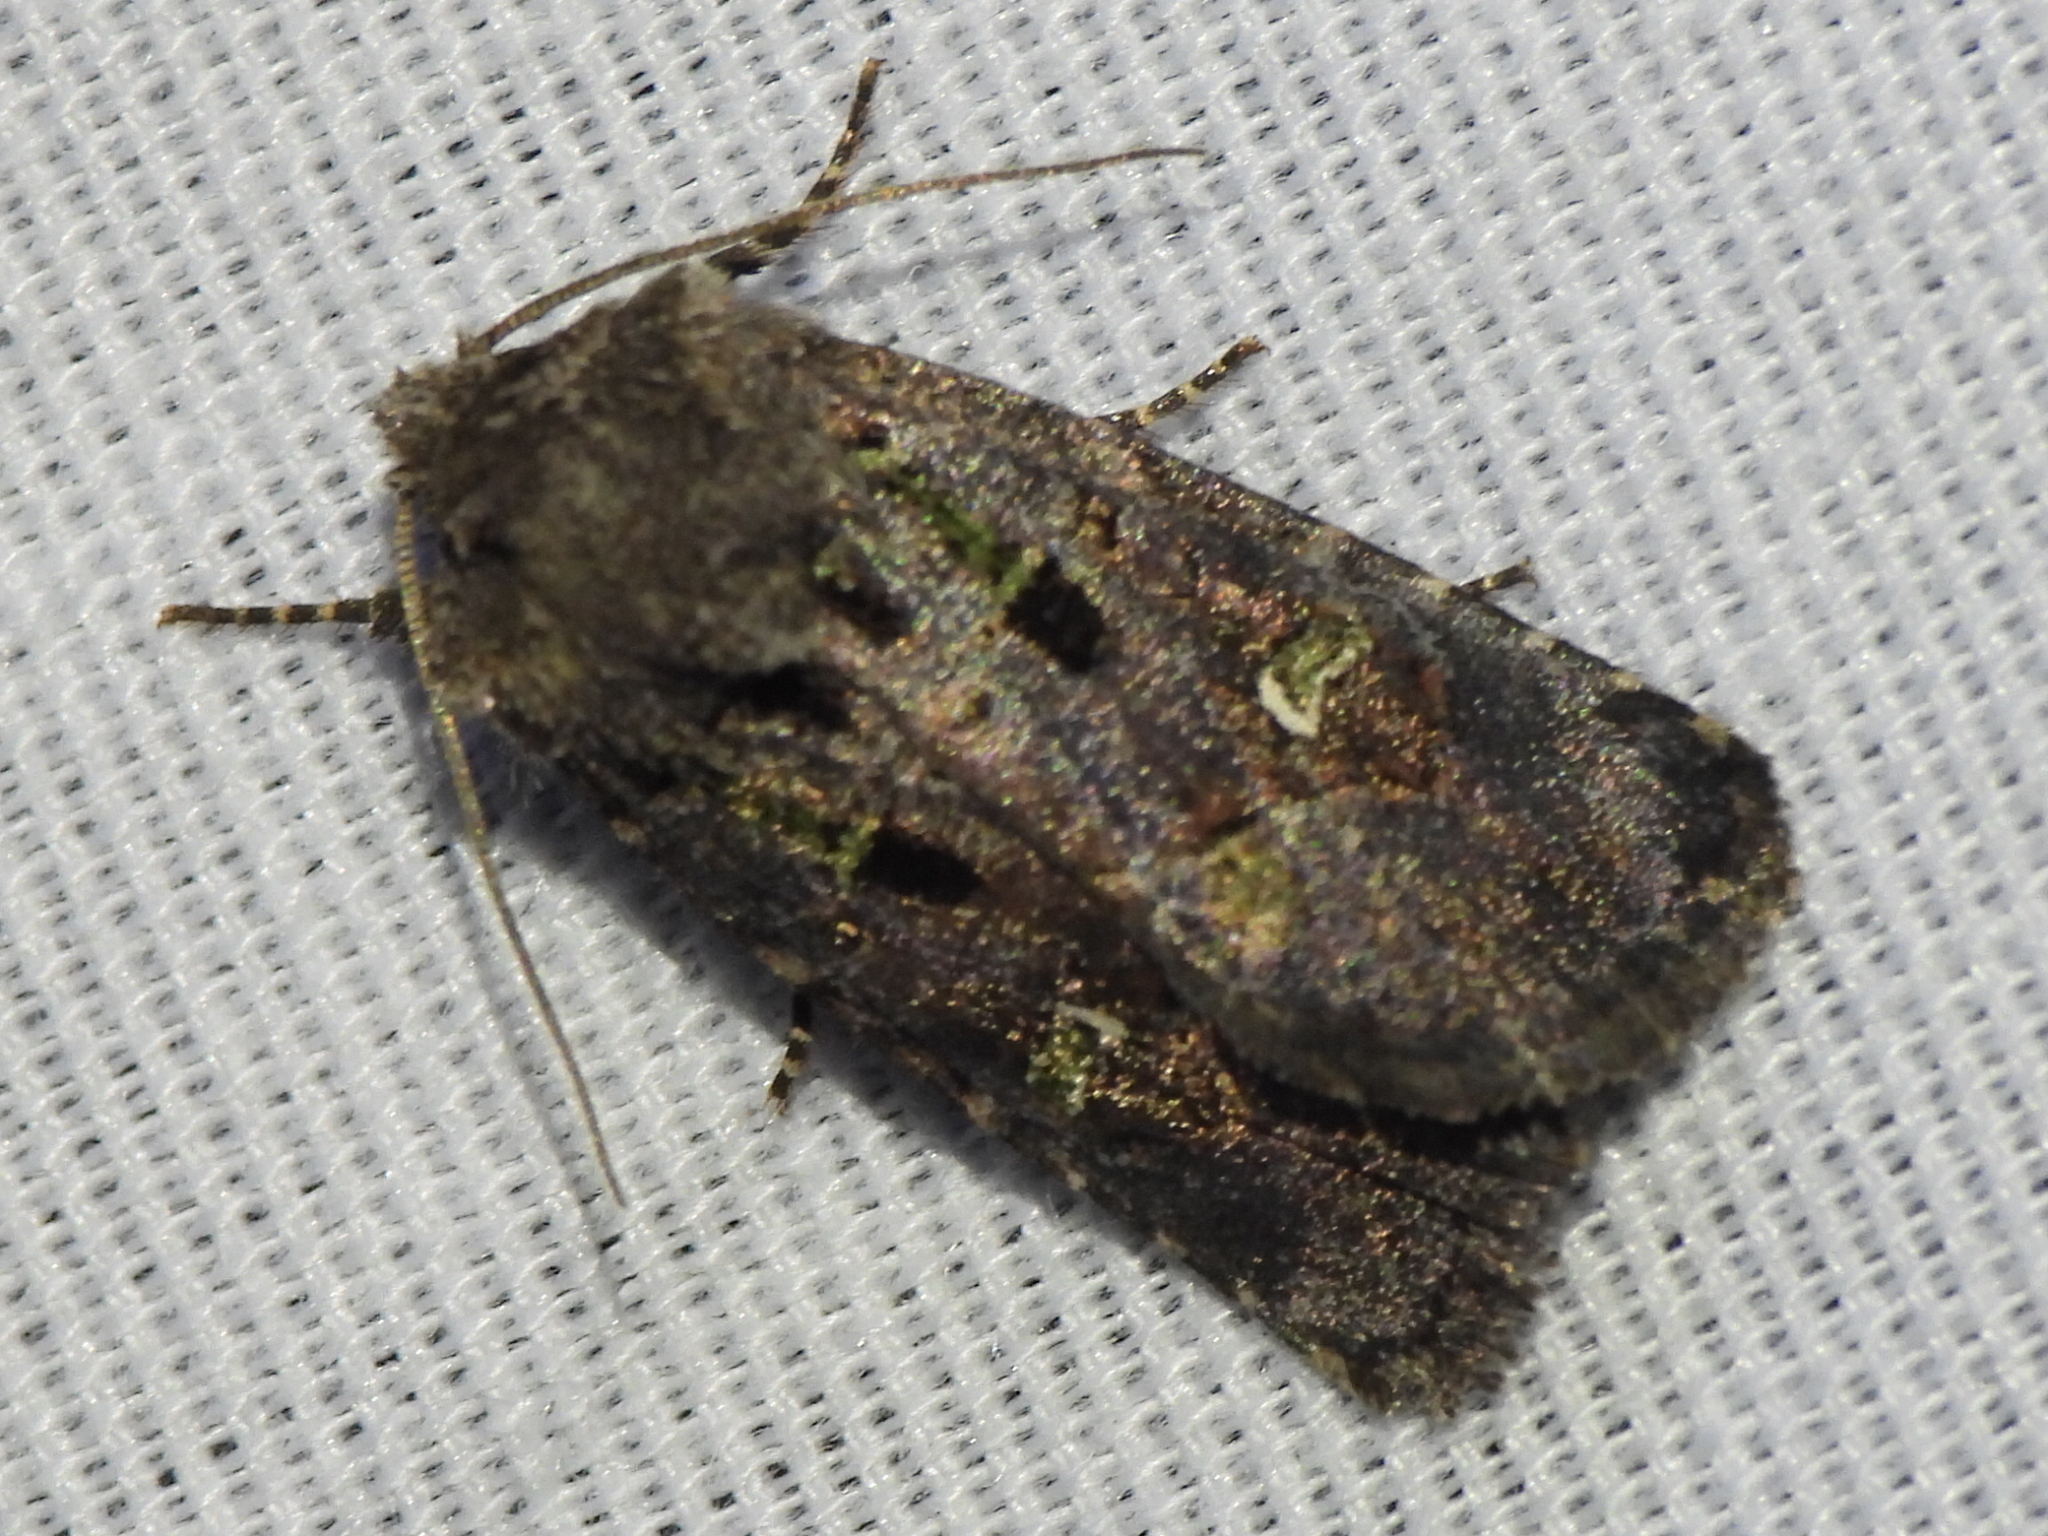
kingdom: Animalia
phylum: Arthropoda
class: Insecta
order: Lepidoptera
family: Noctuidae
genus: Lacinipolia
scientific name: Lacinipolia renigera
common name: Kidney-spotted minor
